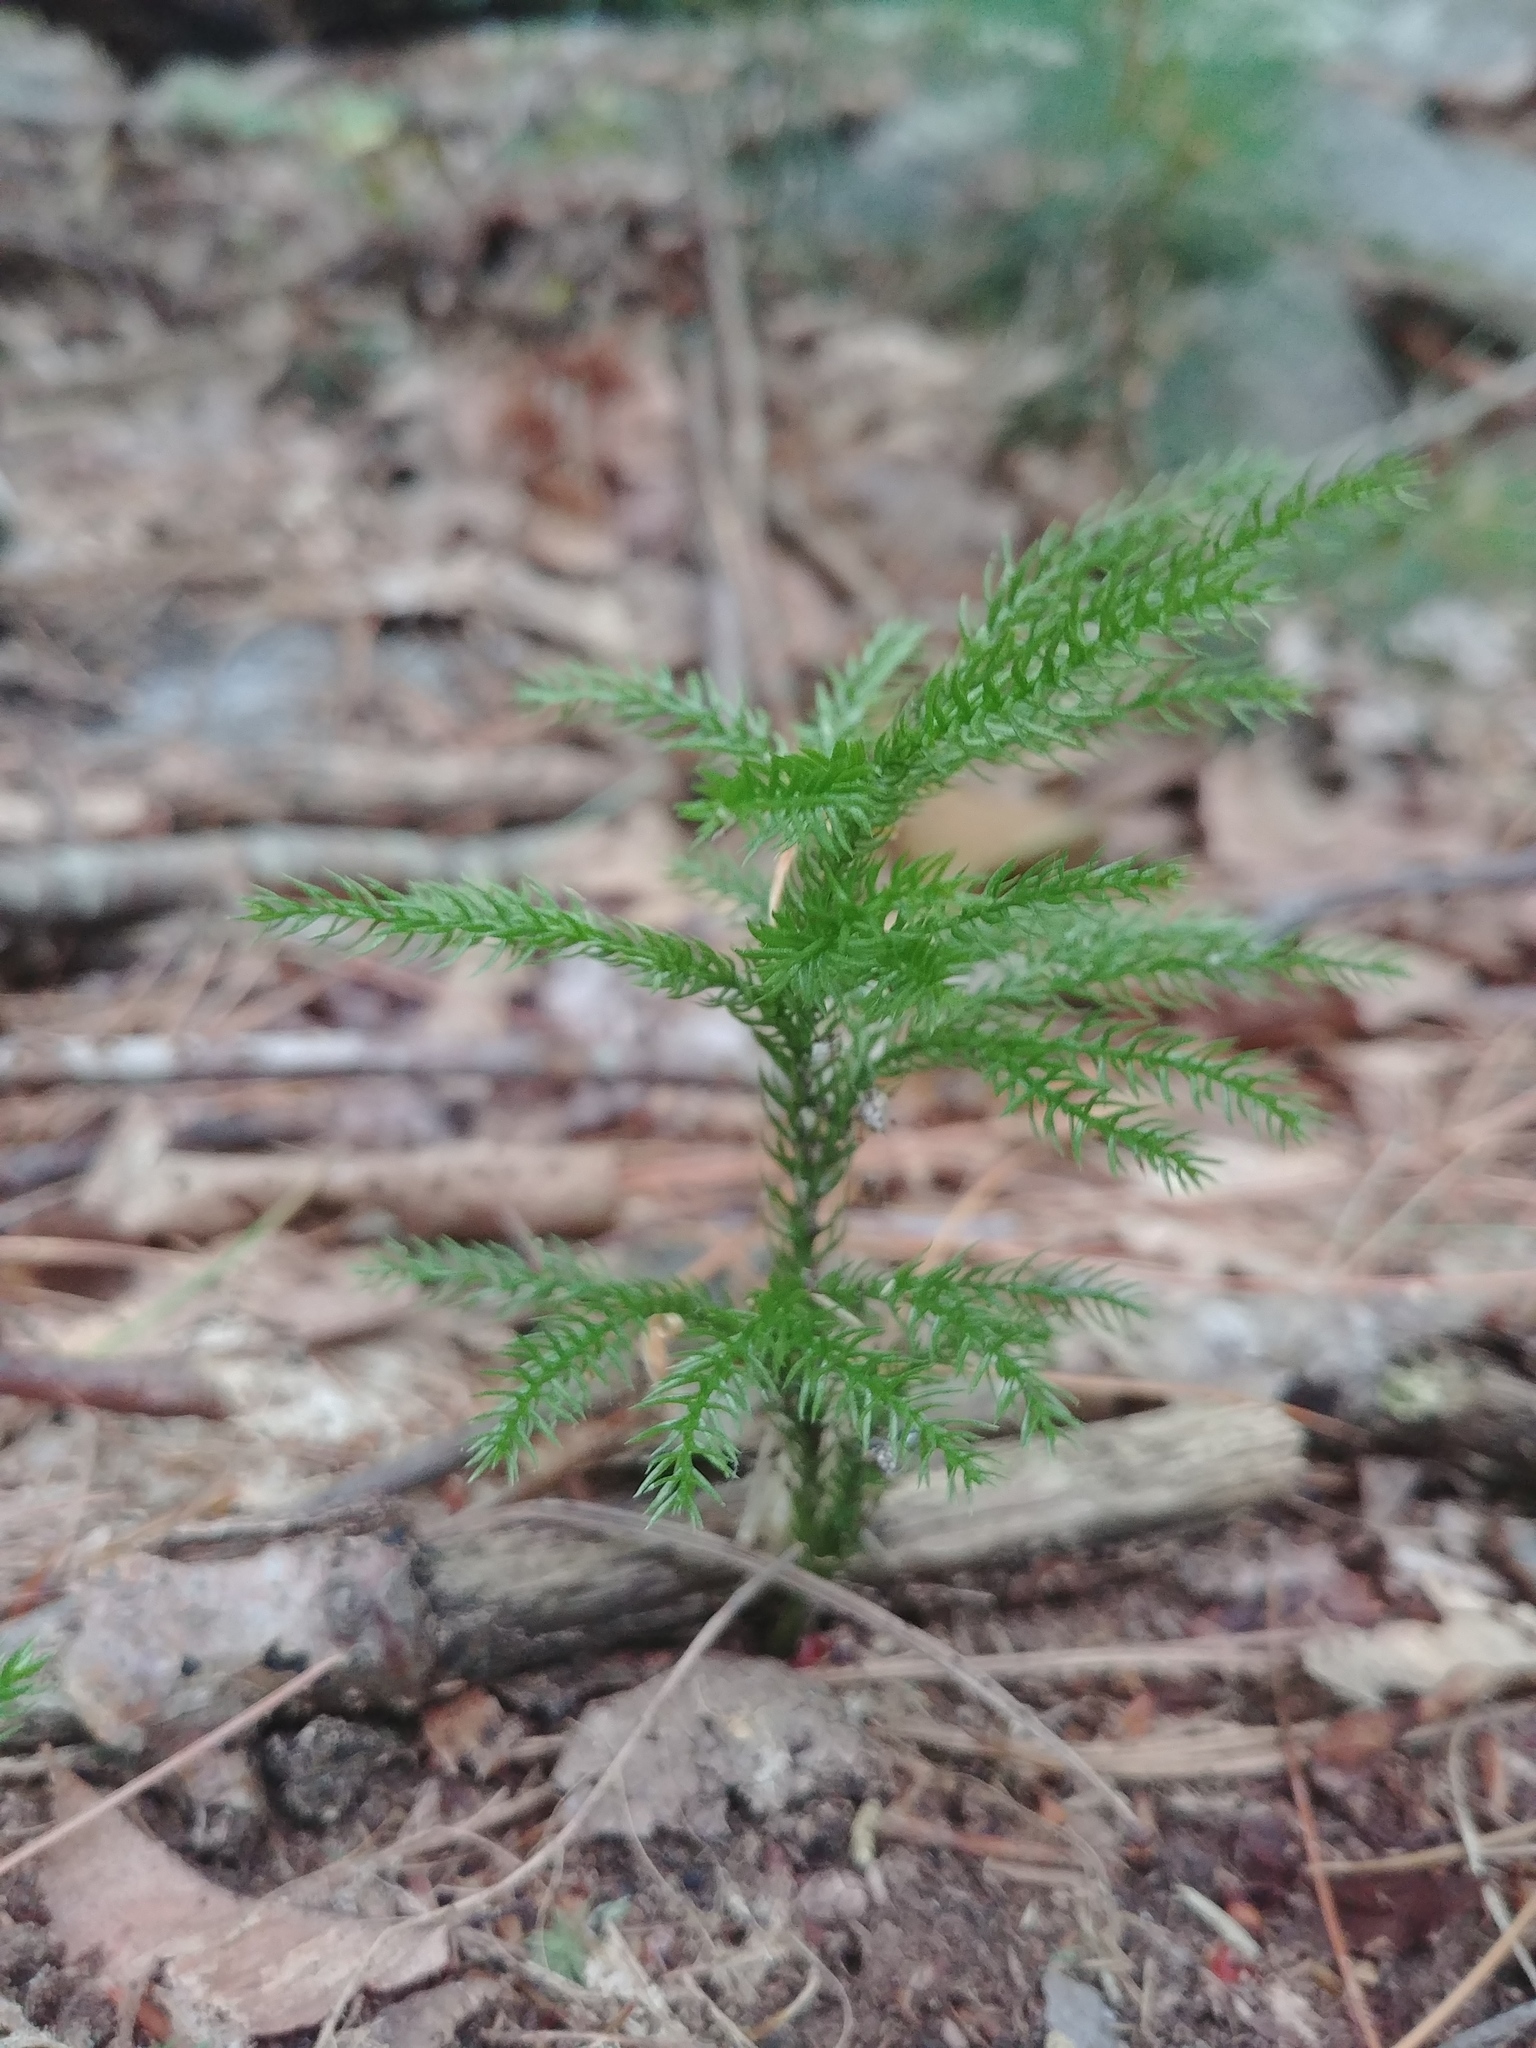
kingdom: Plantae
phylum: Tracheophyta
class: Lycopodiopsida
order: Lycopodiales
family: Lycopodiaceae
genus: Dendrolycopodium
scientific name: Dendrolycopodium dendroideum
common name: Northern tree-clubmoss
